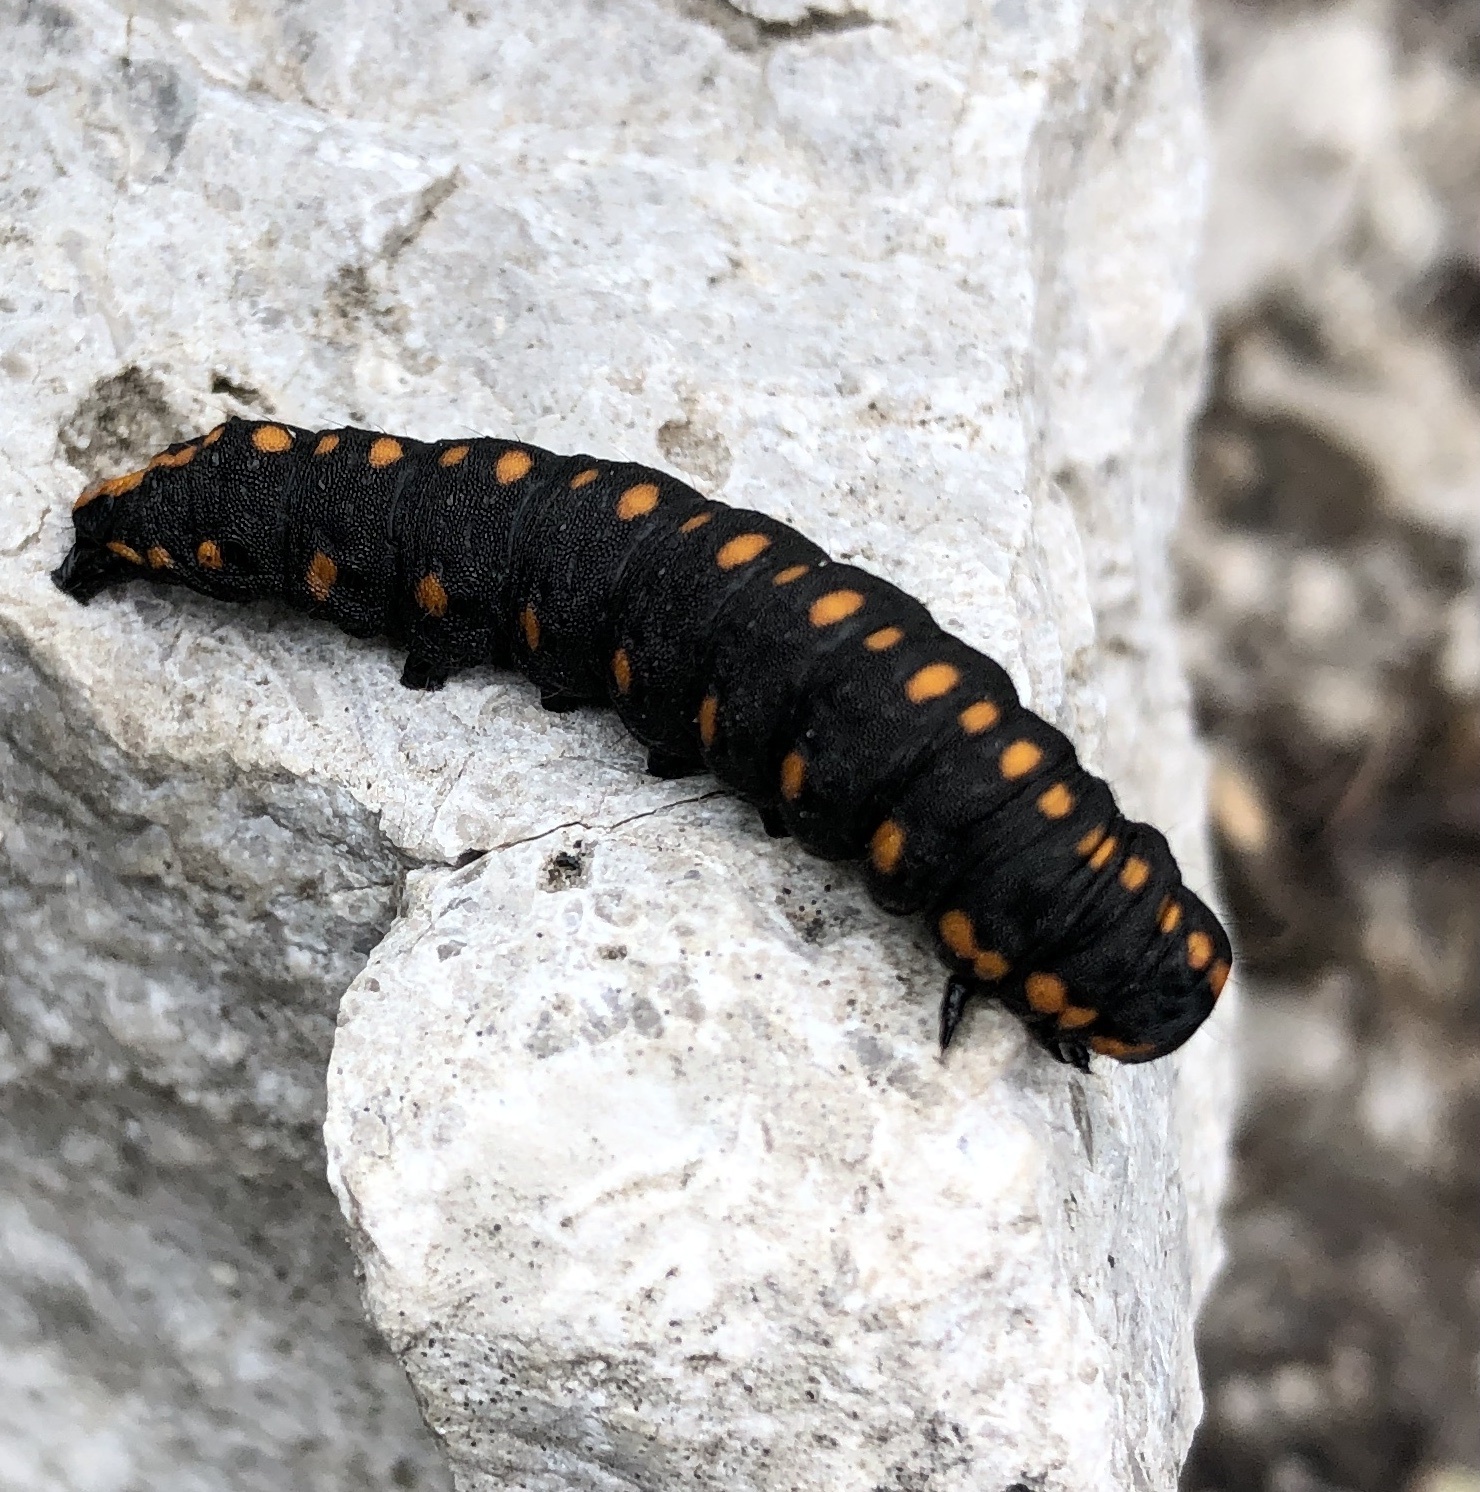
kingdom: Animalia
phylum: Arthropoda
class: Insecta
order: Lepidoptera
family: Noctuidae
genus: Cucullia
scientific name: Cucullia lucifuga
